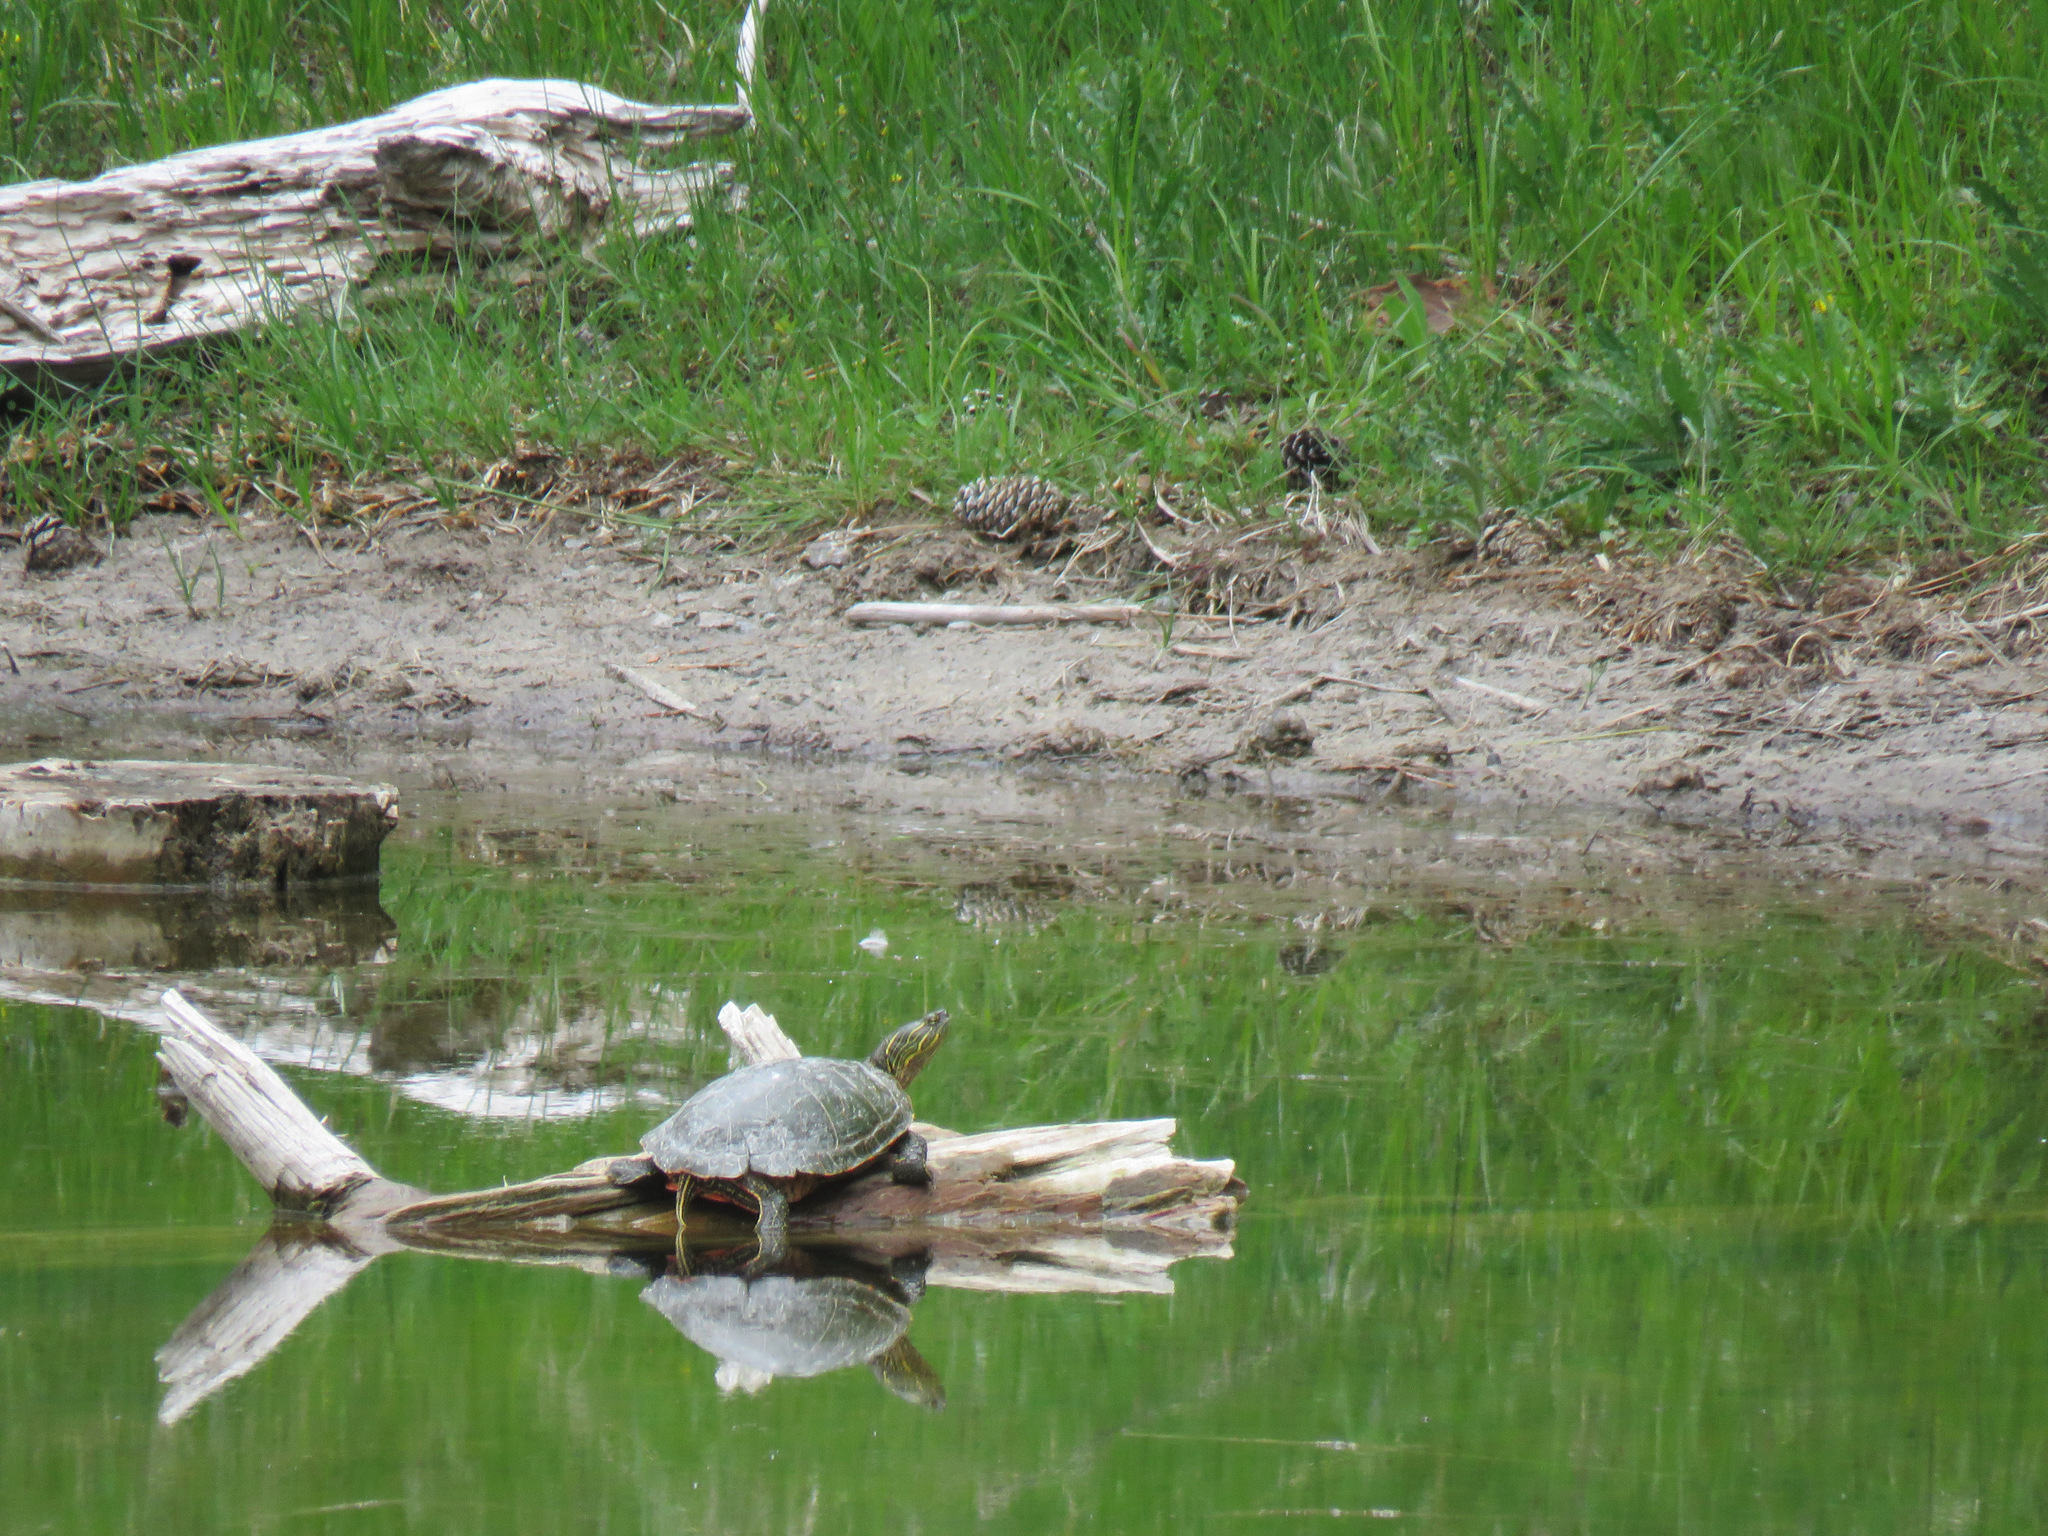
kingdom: Animalia
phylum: Chordata
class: Testudines
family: Emydidae
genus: Chrysemys
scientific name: Chrysemys picta
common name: Painted turtle
